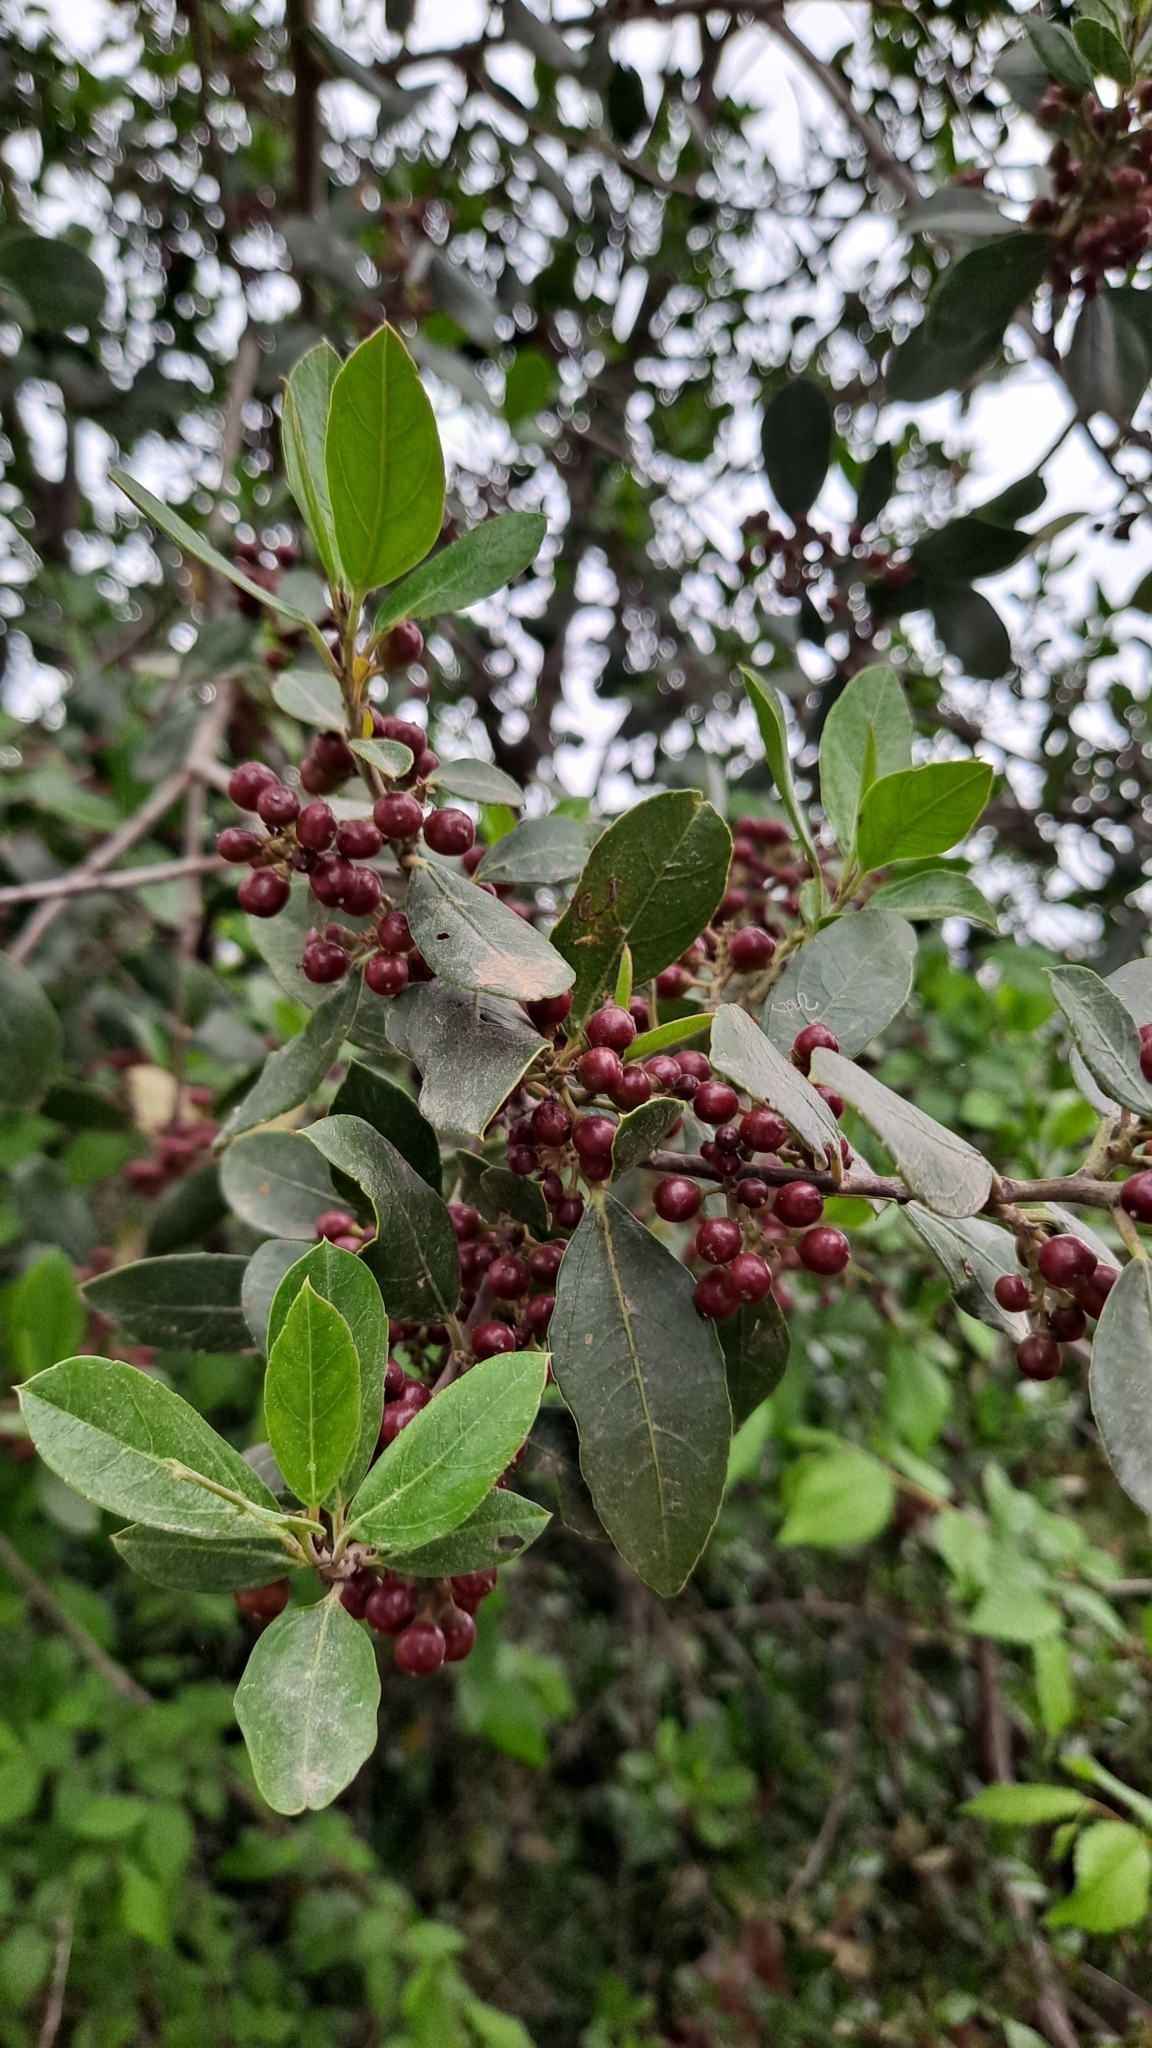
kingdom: Plantae
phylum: Tracheophyta
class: Magnoliopsida
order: Rosales
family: Rhamnaceae
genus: Rhamnus
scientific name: Rhamnus alaternus
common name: Mediterranean buckthorn
